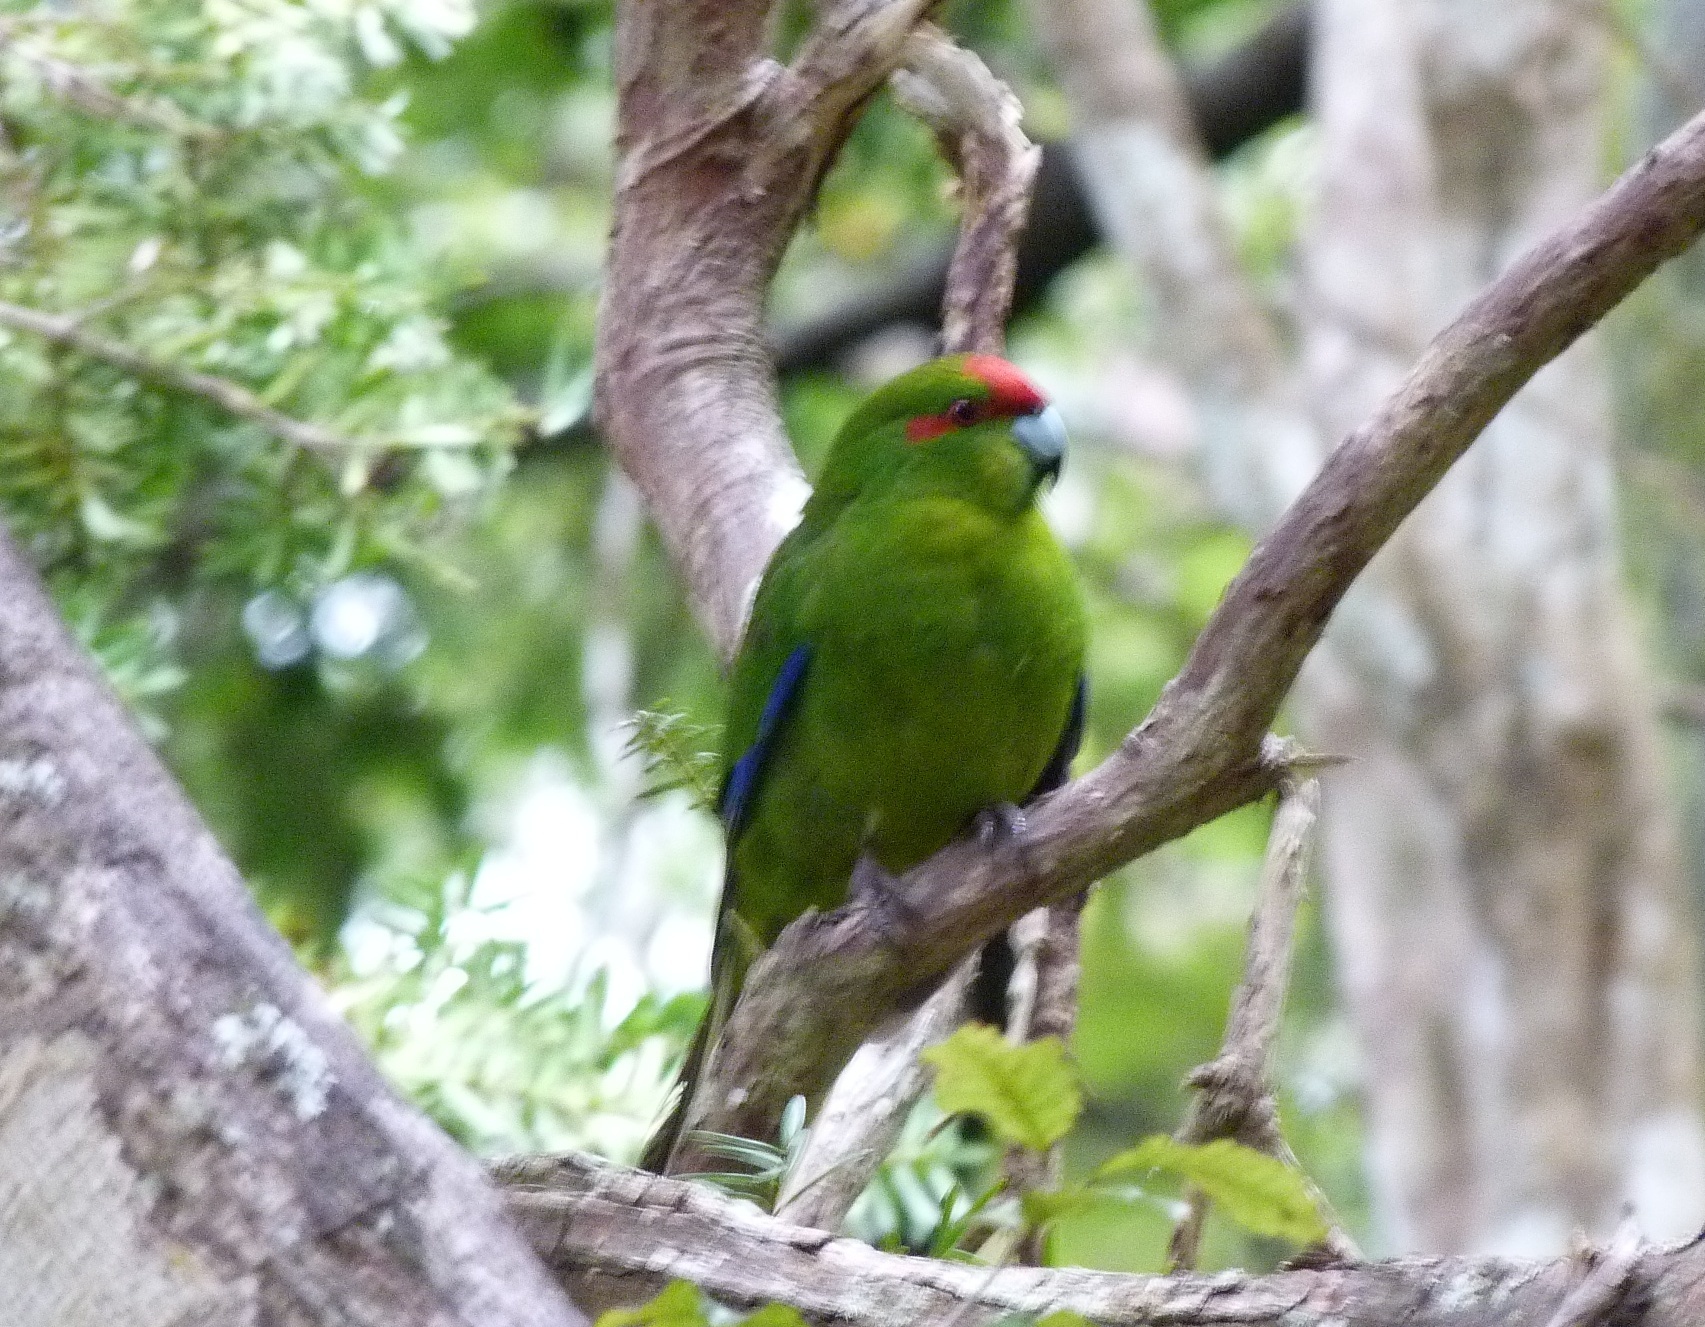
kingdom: Animalia
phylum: Chordata
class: Aves
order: Psittaciformes
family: Psittacidae
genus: Cyanoramphus
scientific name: Cyanoramphus novaezelandiae
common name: Red-fronted parakeet
